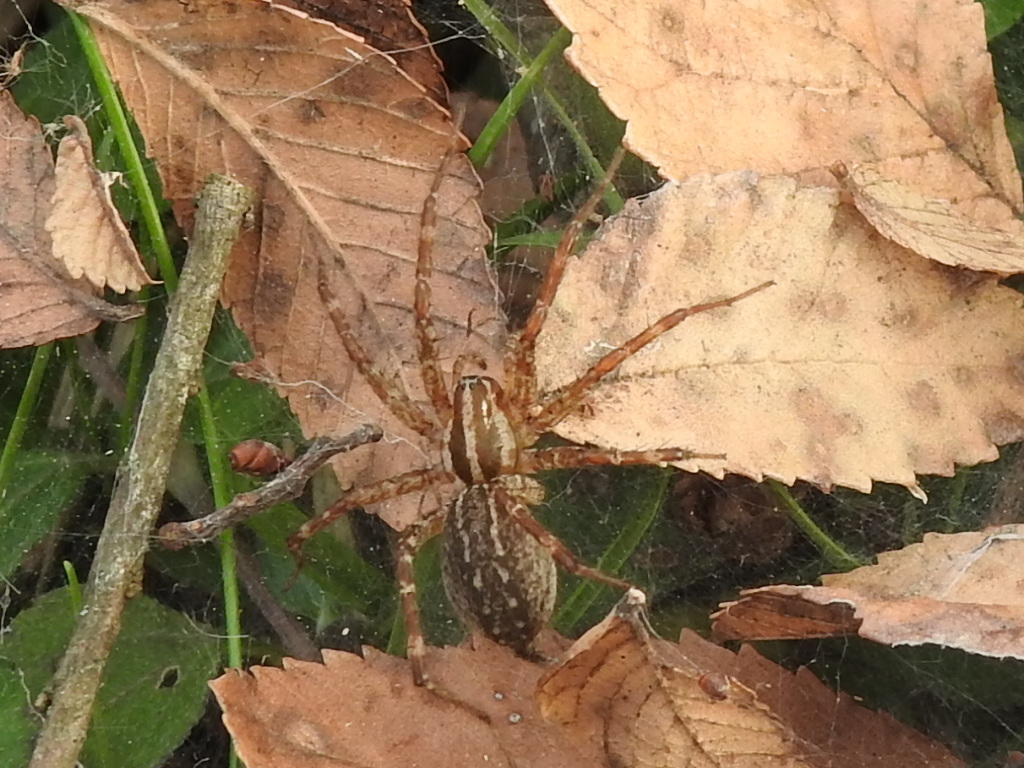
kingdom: Animalia
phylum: Arthropoda
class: Arachnida
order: Araneae
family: Agelenidae
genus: Agelenopsis
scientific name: Agelenopsis
